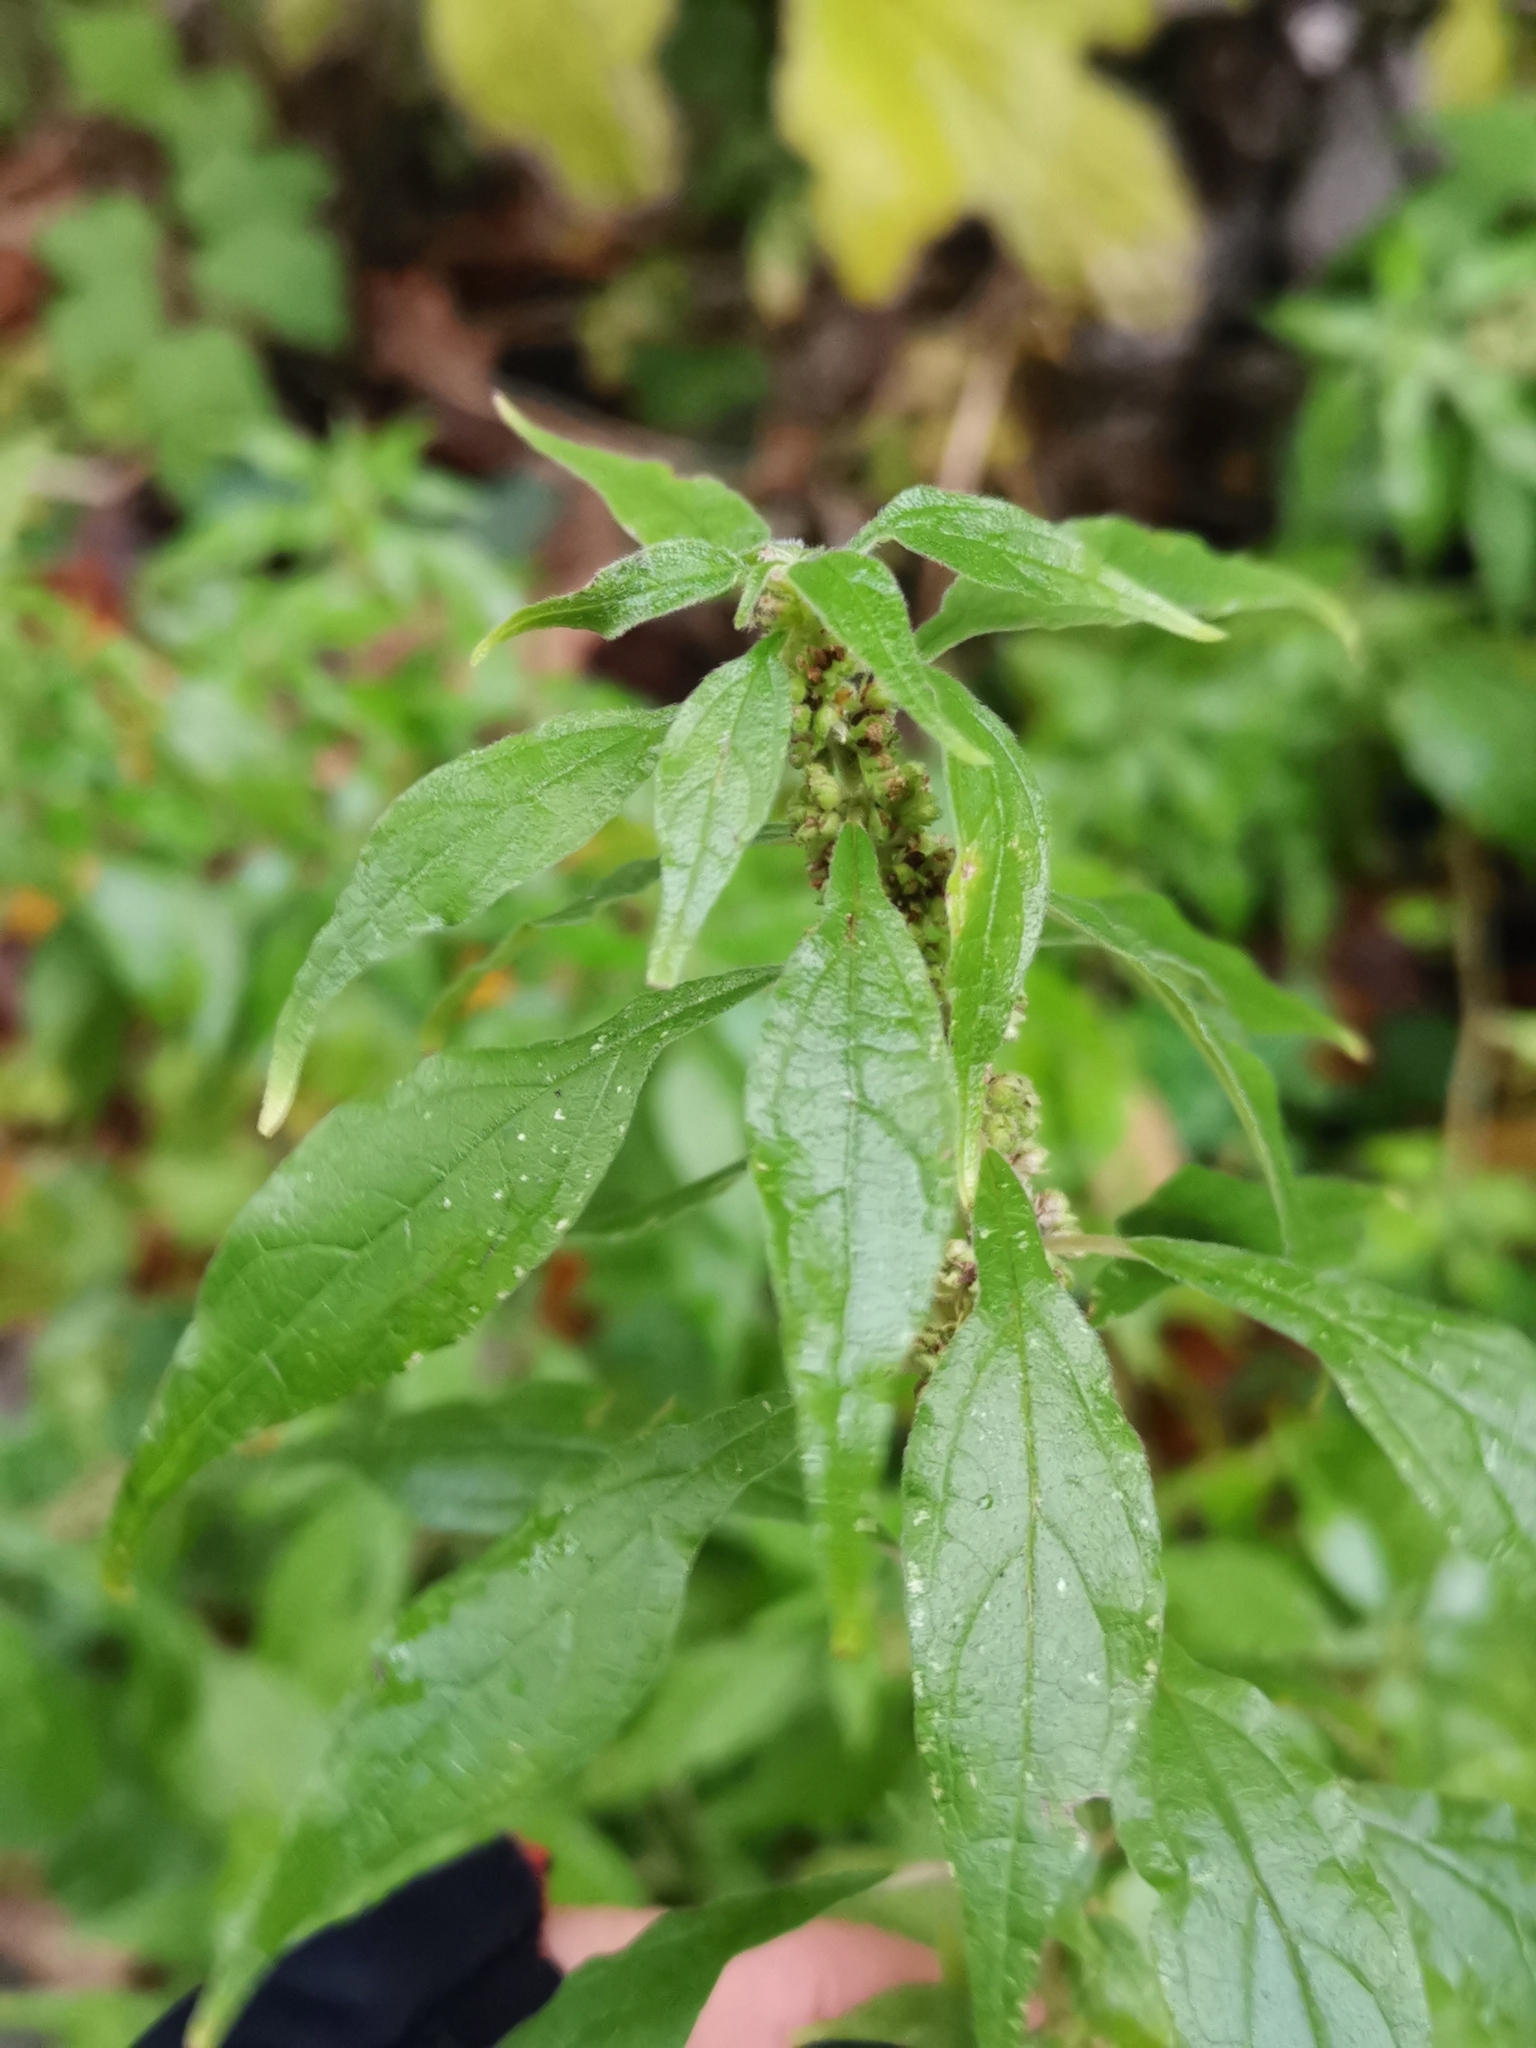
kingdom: Plantae
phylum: Tracheophyta
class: Magnoliopsida
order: Rosales
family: Urticaceae
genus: Parietaria
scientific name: Parietaria officinalis
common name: Eastern pellitory-of-the-wall
